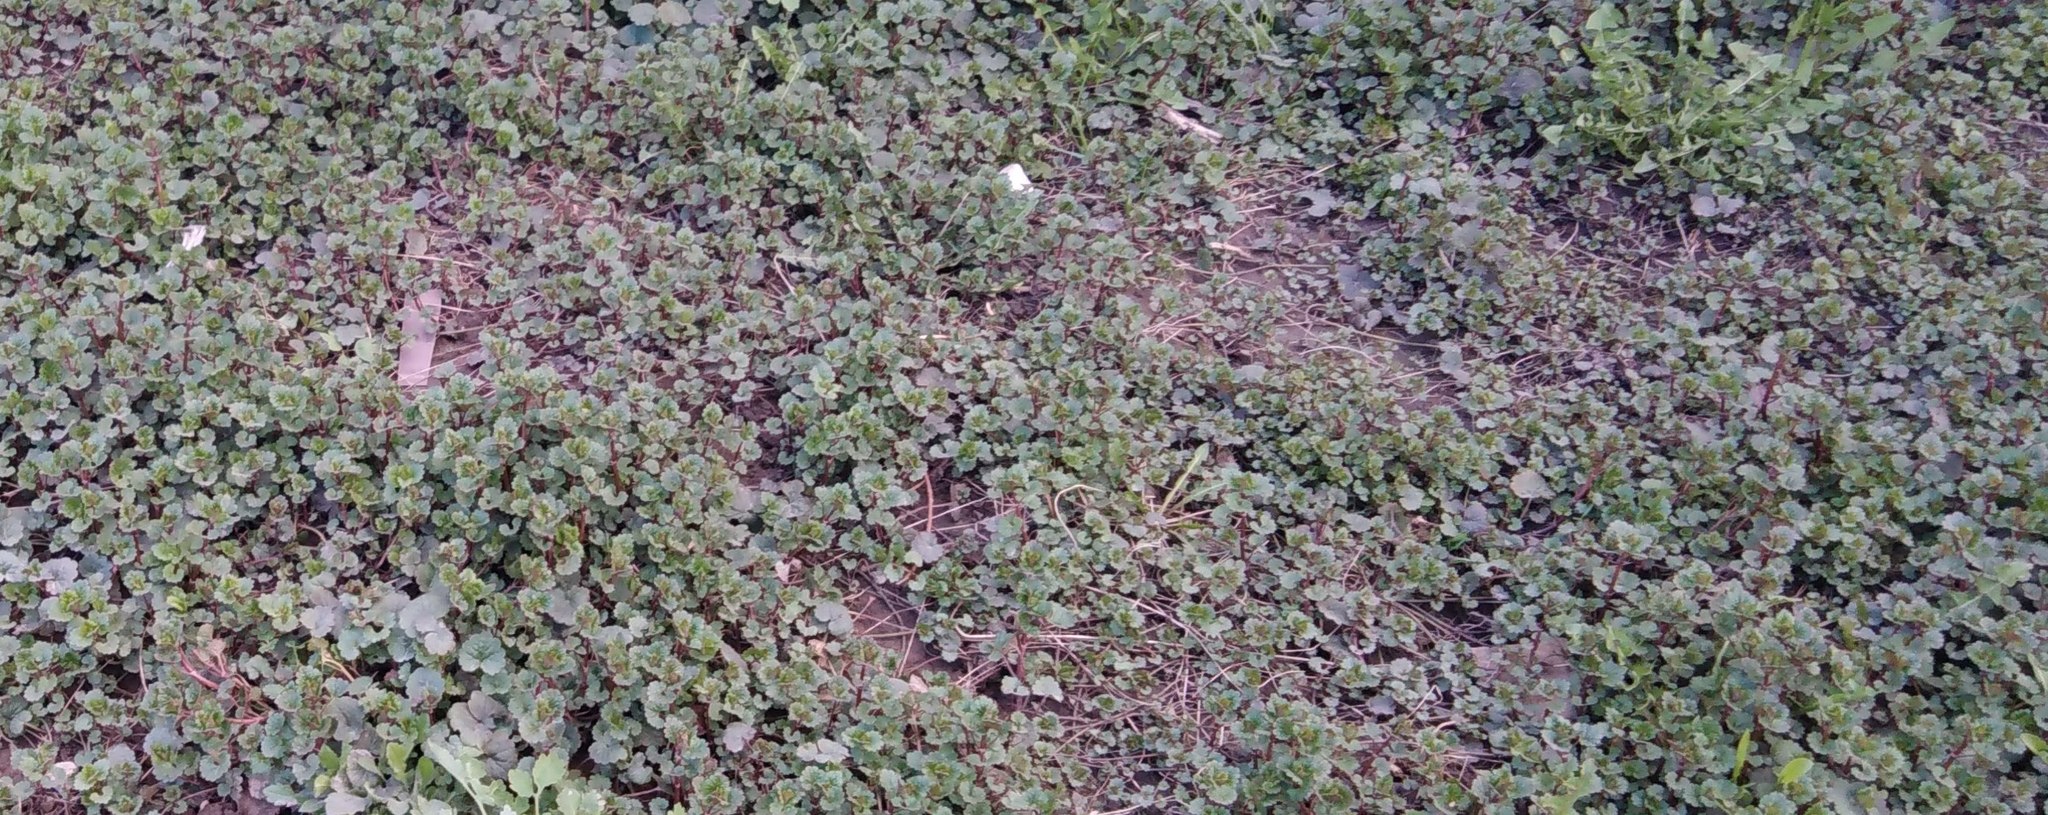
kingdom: Plantae
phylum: Tracheophyta
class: Magnoliopsida
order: Lamiales
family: Lamiaceae
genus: Glechoma
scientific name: Glechoma hederacea
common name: Ground ivy
